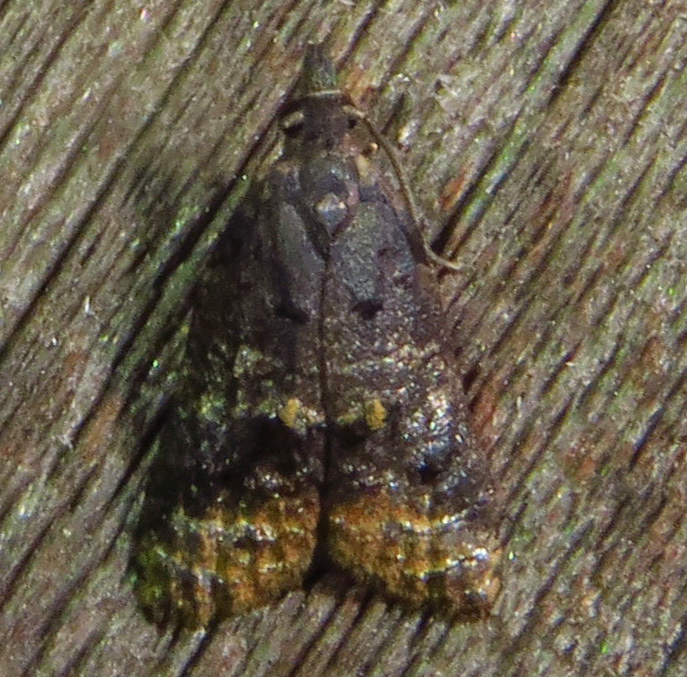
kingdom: Animalia
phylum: Arthropoda
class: Insecta
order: Lepidoptera
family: Tortricidae
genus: Platynota
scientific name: Platynota idaeusalis
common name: Tufted apple bud moth
